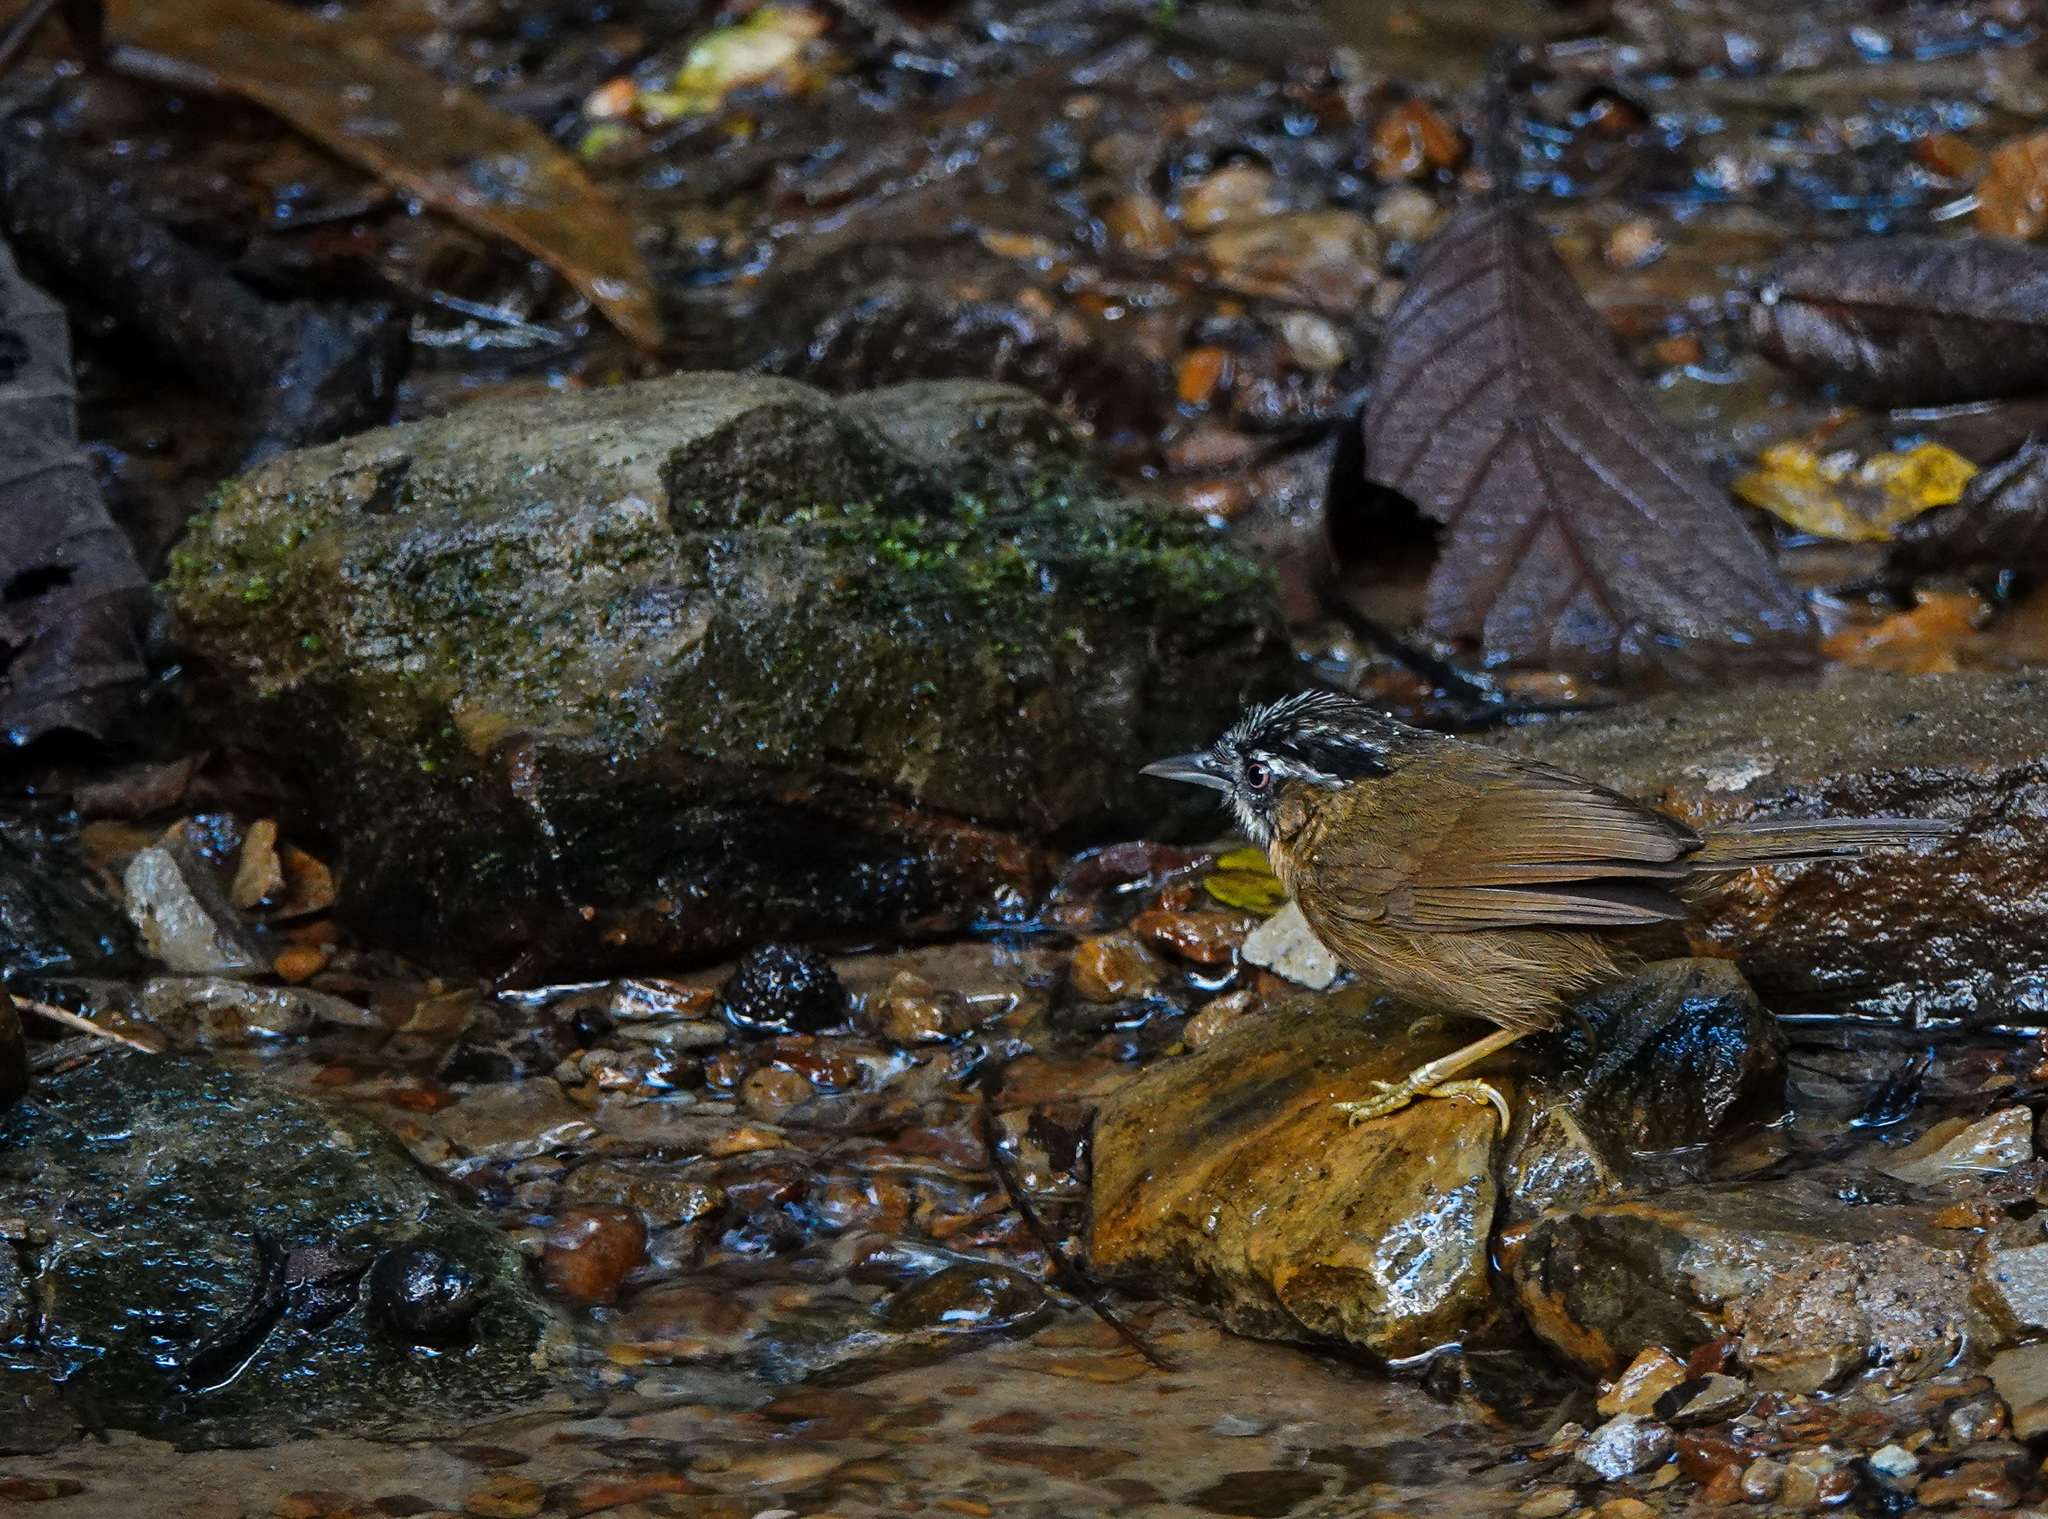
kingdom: Animalia
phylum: Chordata
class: Aves
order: Passeriformes
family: Timaliidae
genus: Stachyris
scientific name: Stachyris nigriceps
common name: Grey-throated babbler
